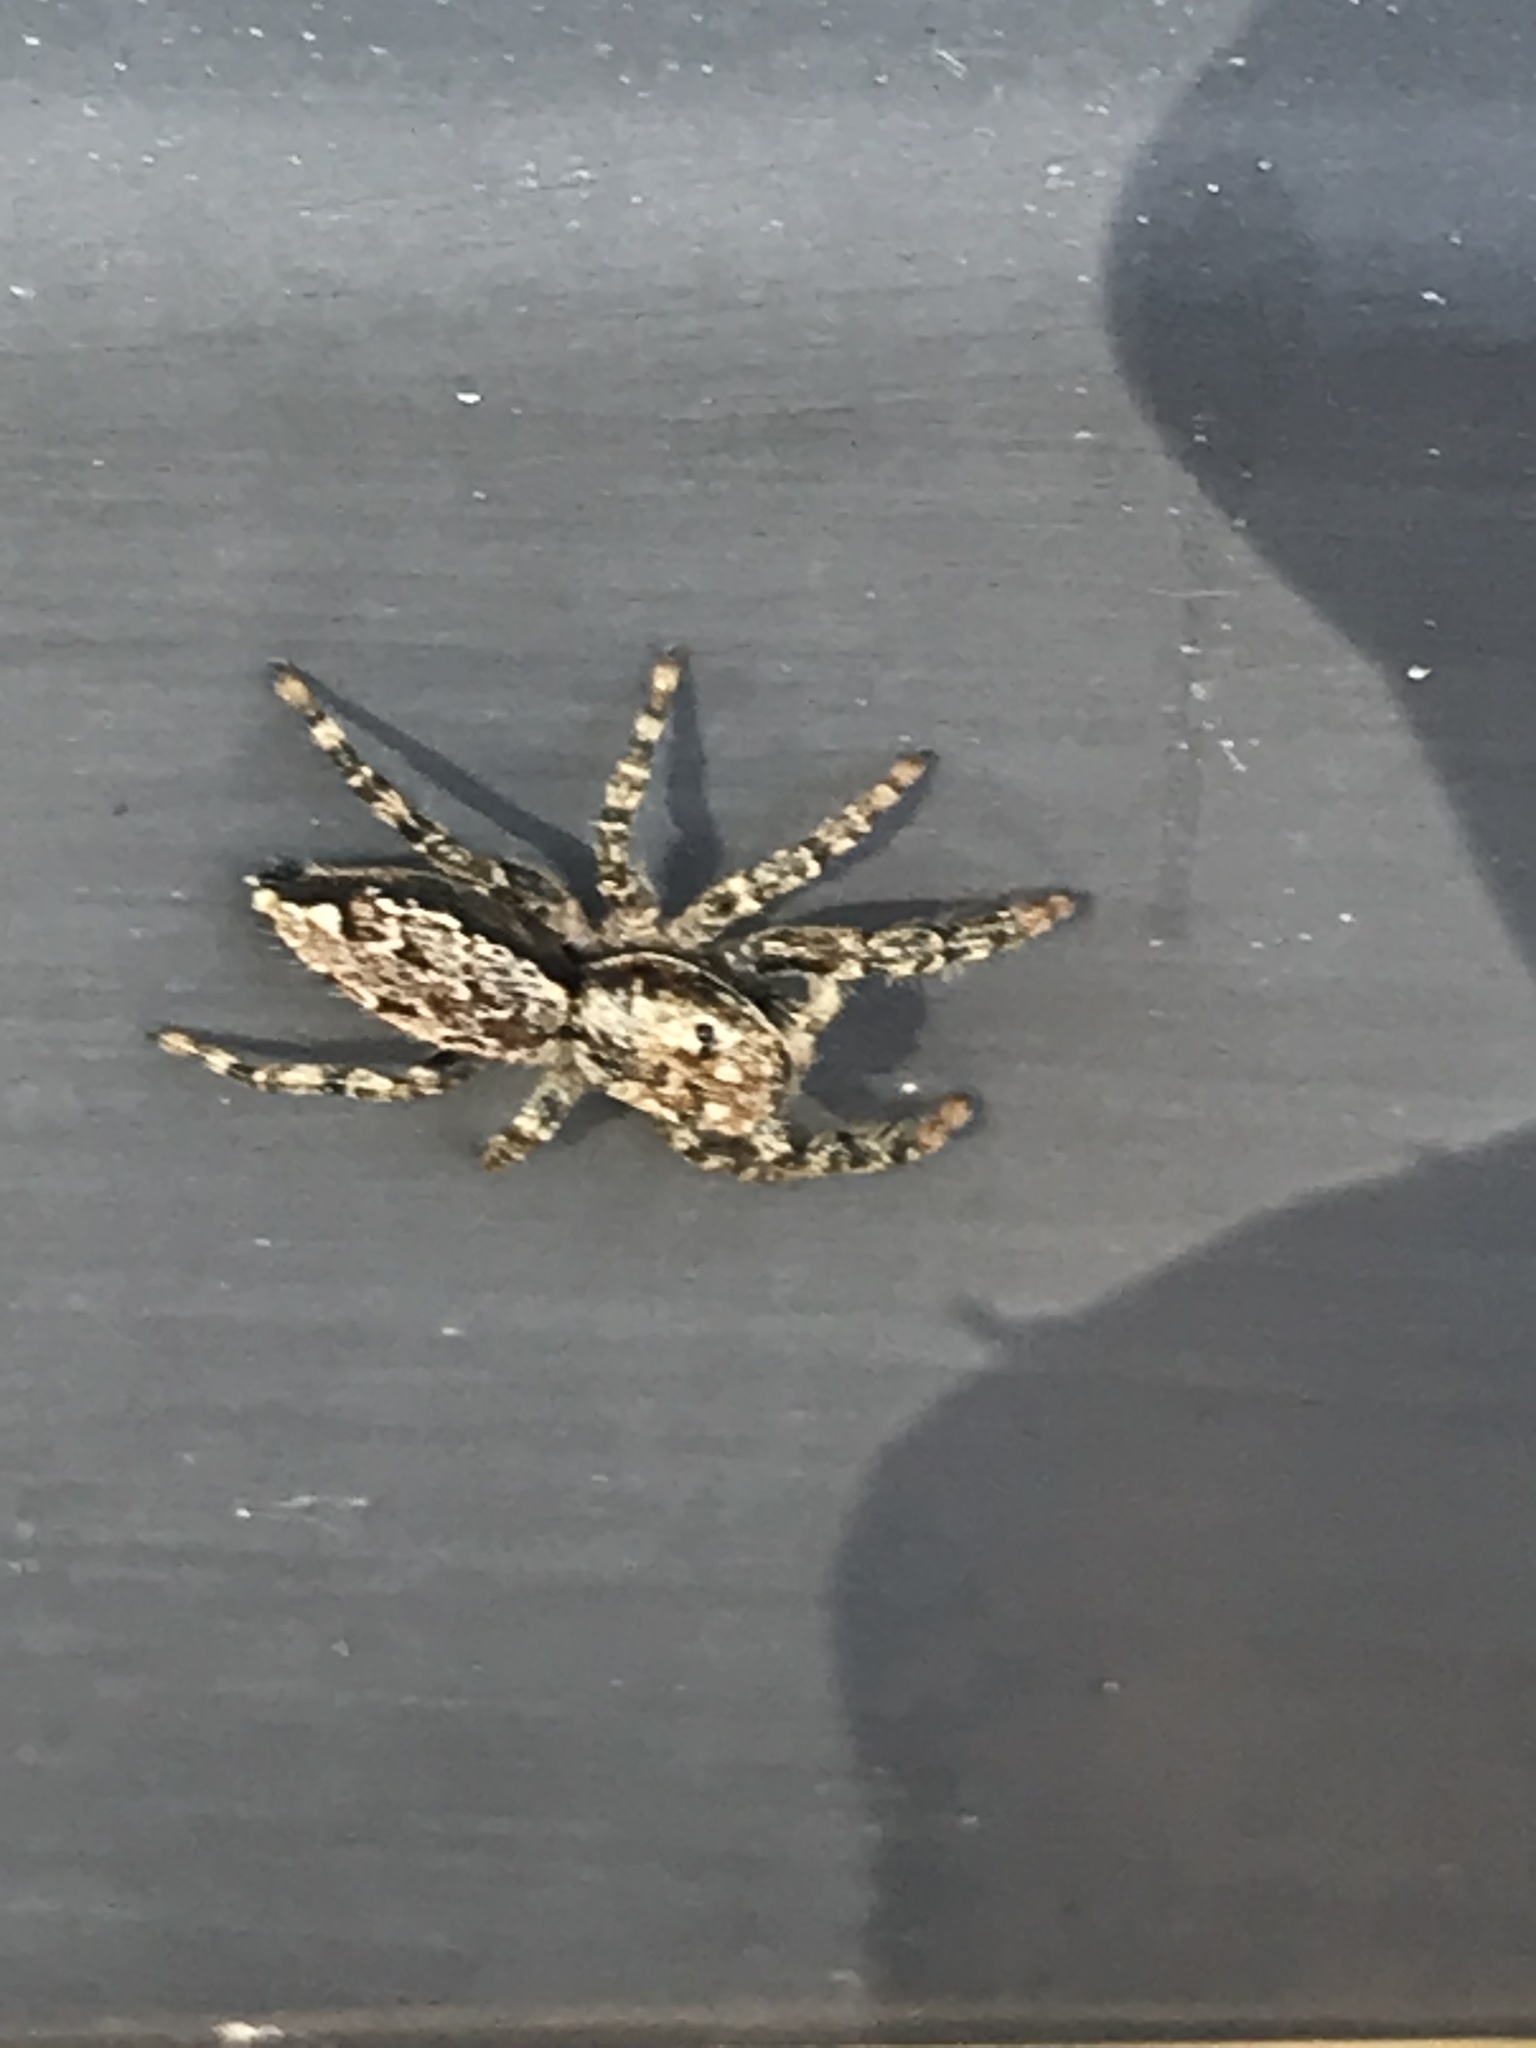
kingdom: Animalia
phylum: Arthropoda
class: Arachnida
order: Araneae
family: Salticidae
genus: Marpissa
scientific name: Marpissa muscosa
